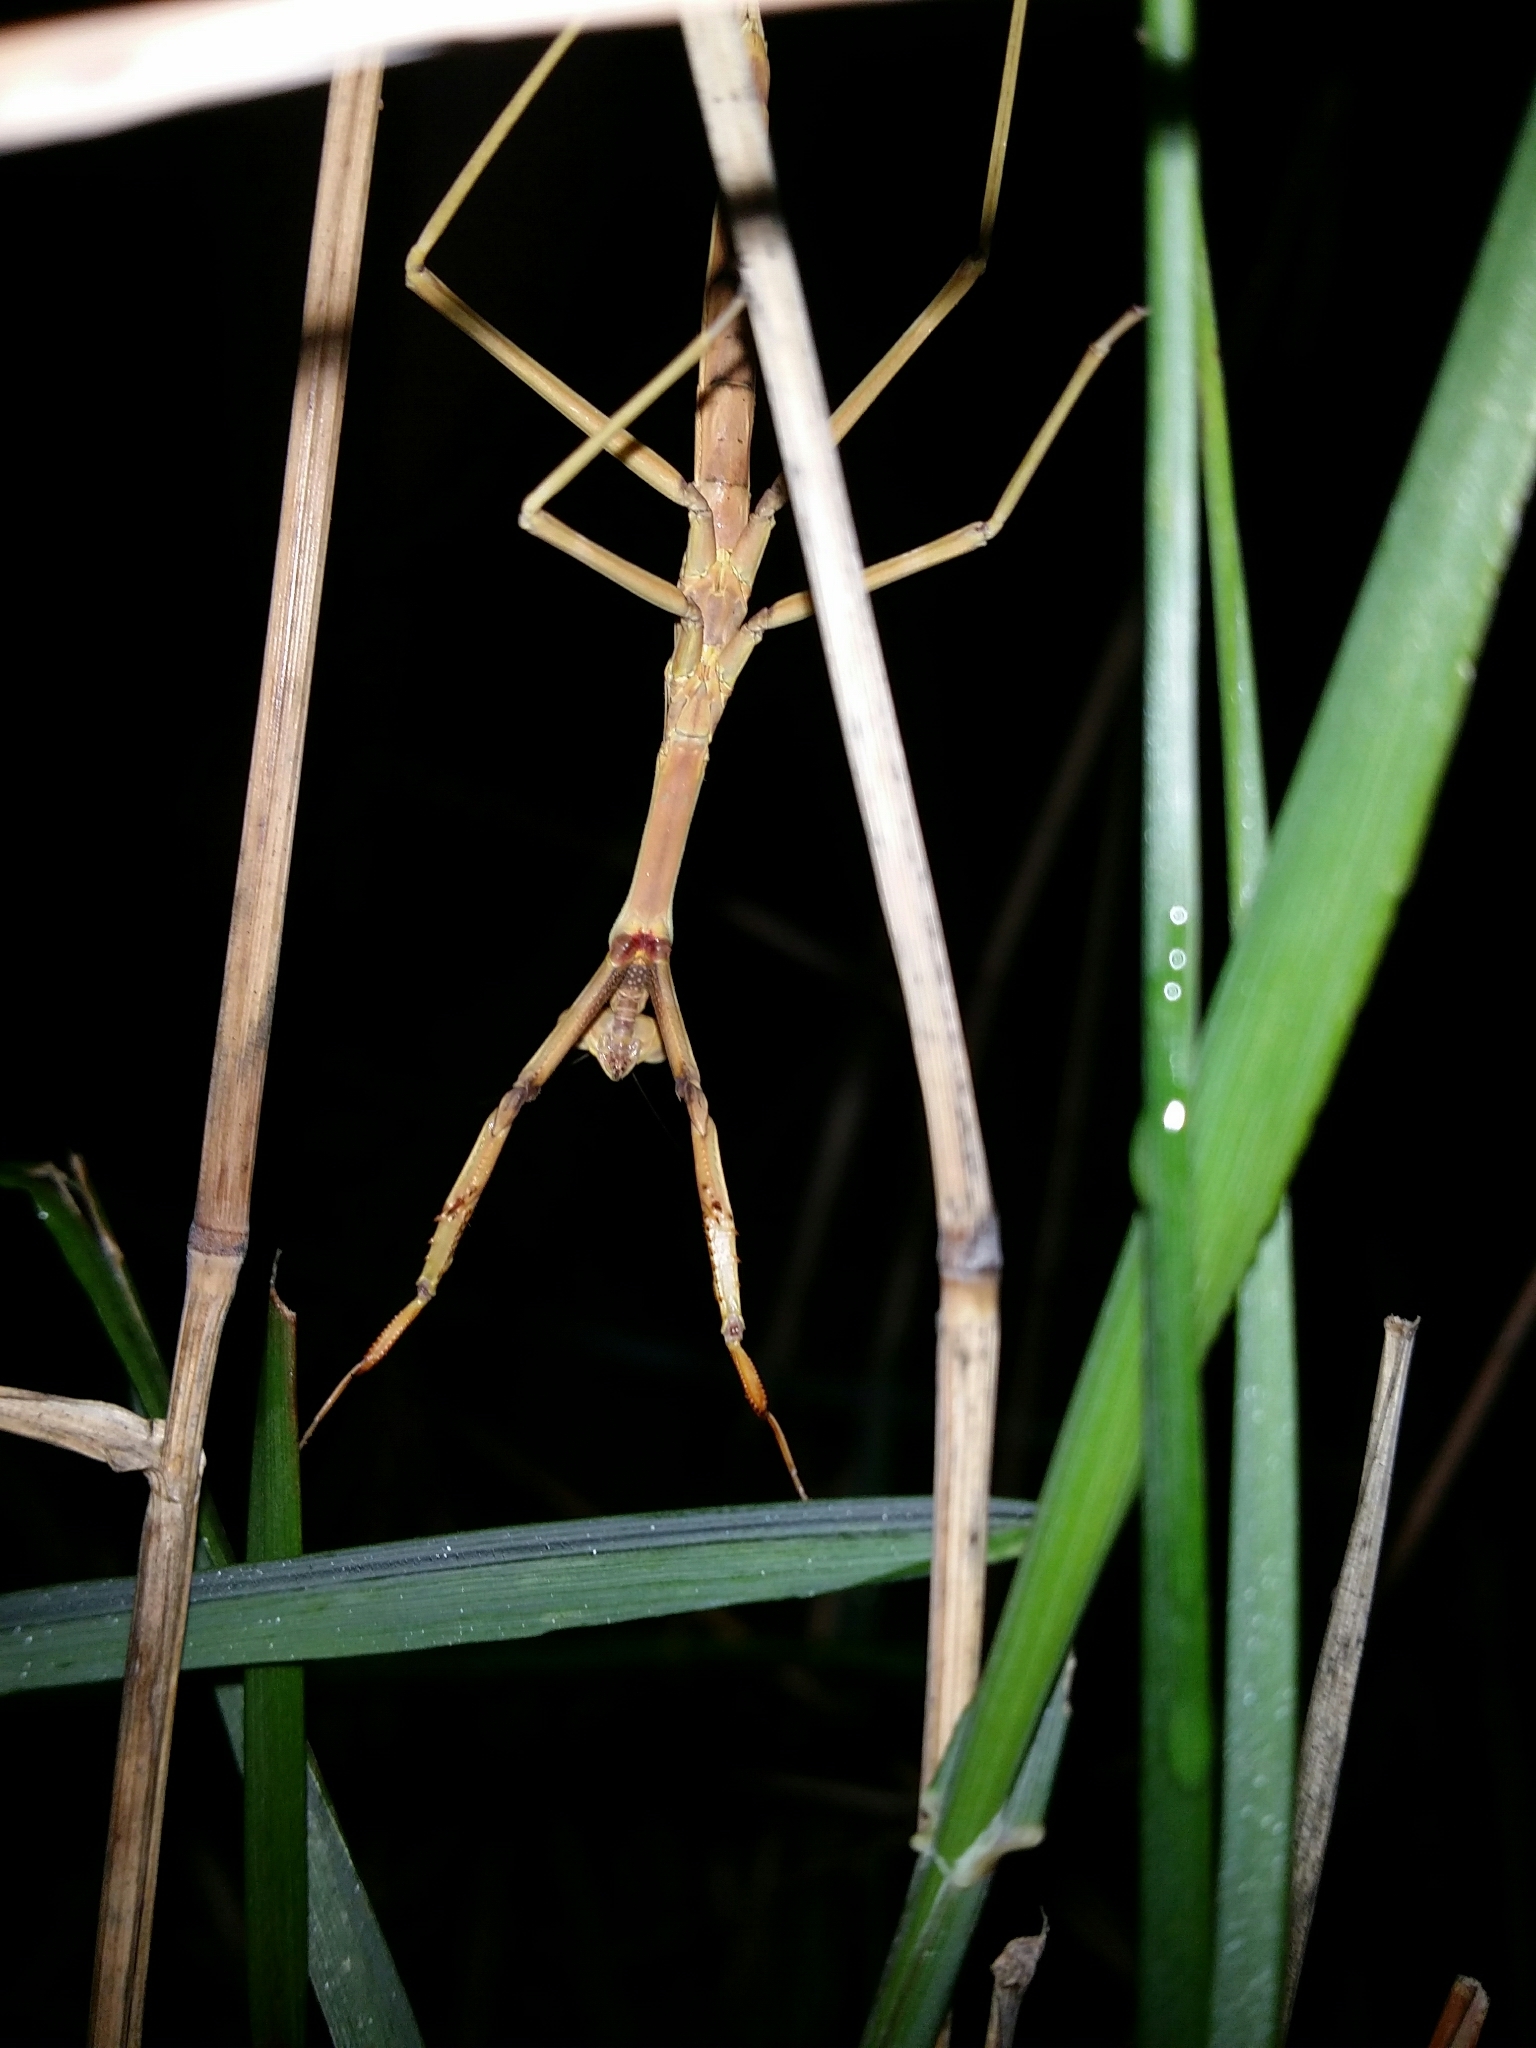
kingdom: Animalia
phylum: Arthropoda
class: Insecta
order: Mantodea
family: Mantidae
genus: Archimantis
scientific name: Archimantis sobrina
